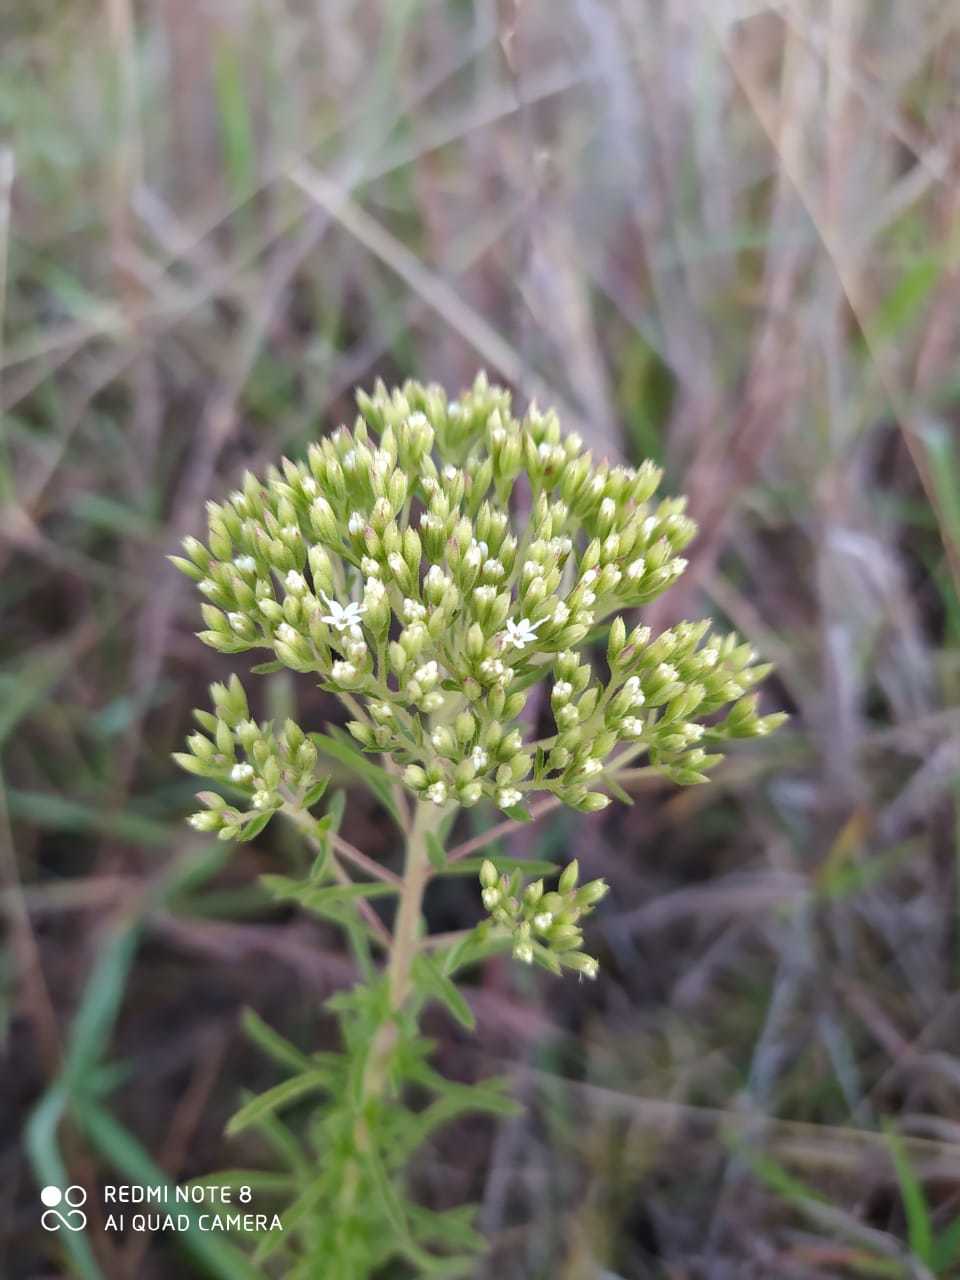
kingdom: Plantae
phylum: Tracheophyta
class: Magnoliopsida
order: Asterales
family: Asteraceae
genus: Stevia
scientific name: Stevia serrata
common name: Sawtooth candyleaf
